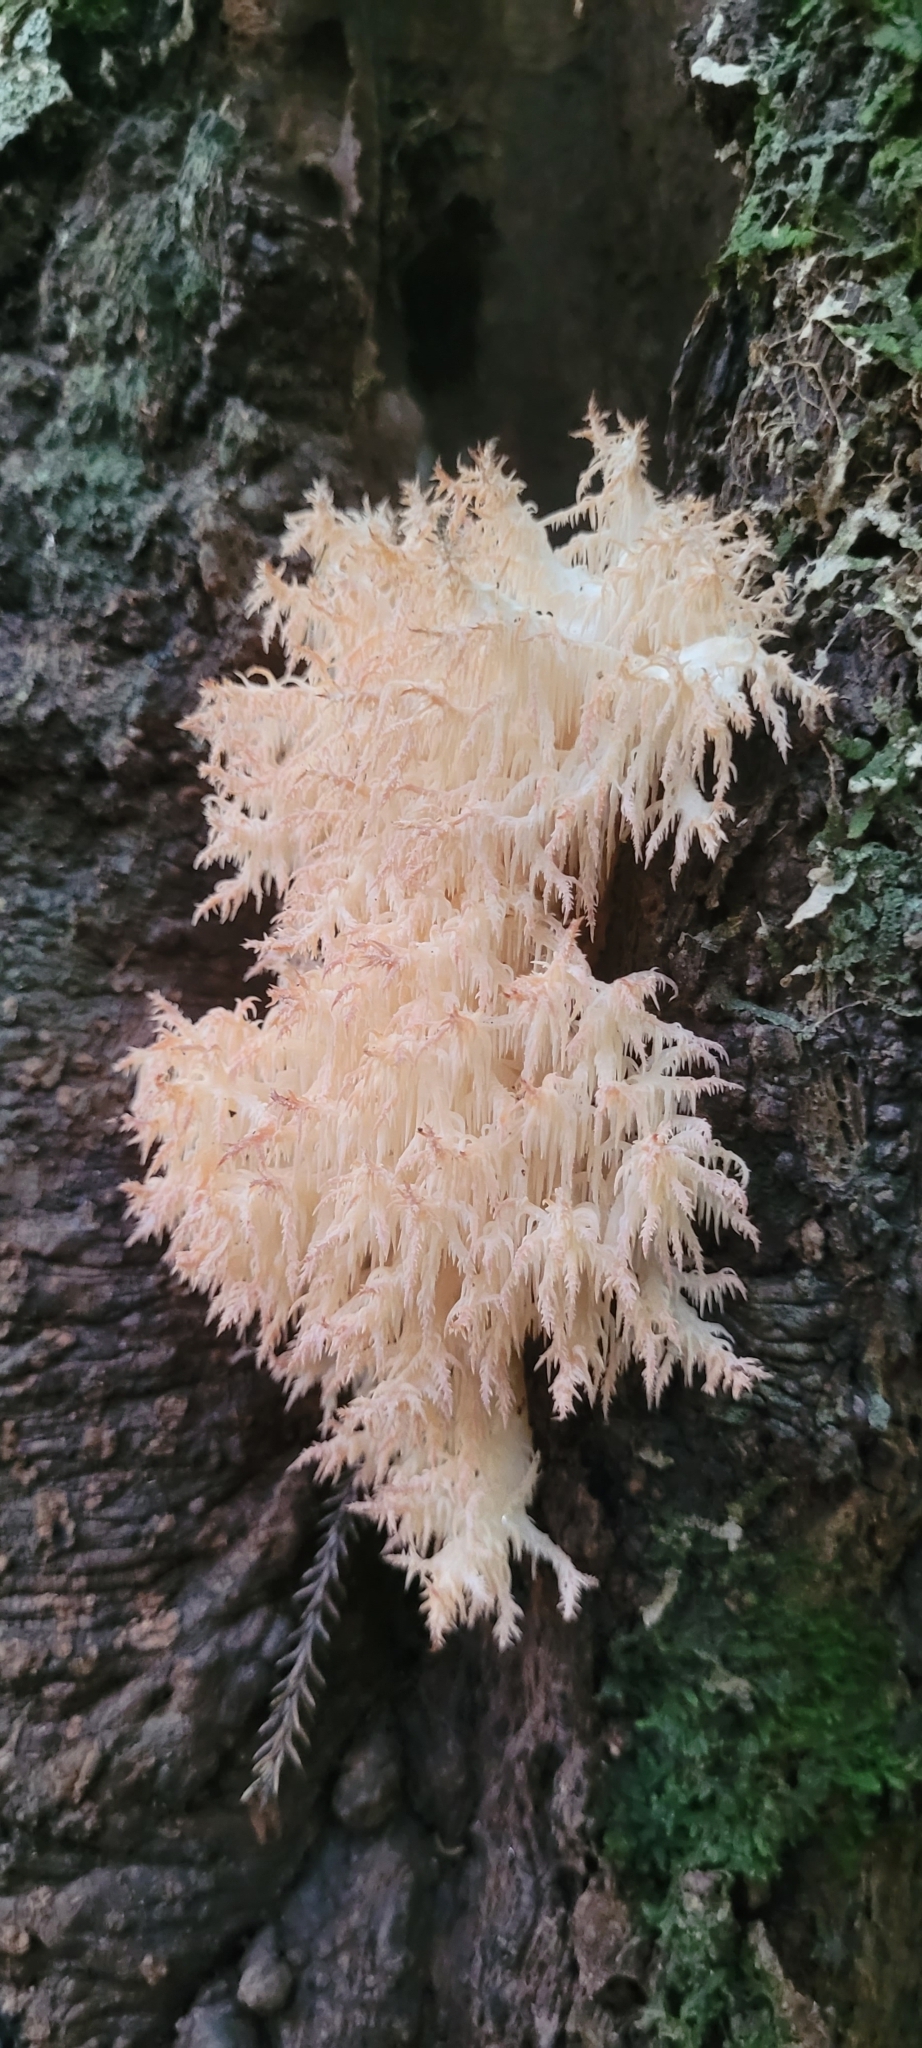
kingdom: Fungi
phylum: Basidiomycota
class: Agaricomycetes
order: Russulales
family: Hericiaceae
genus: Hericium
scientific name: Hericium novae-zealandiae
